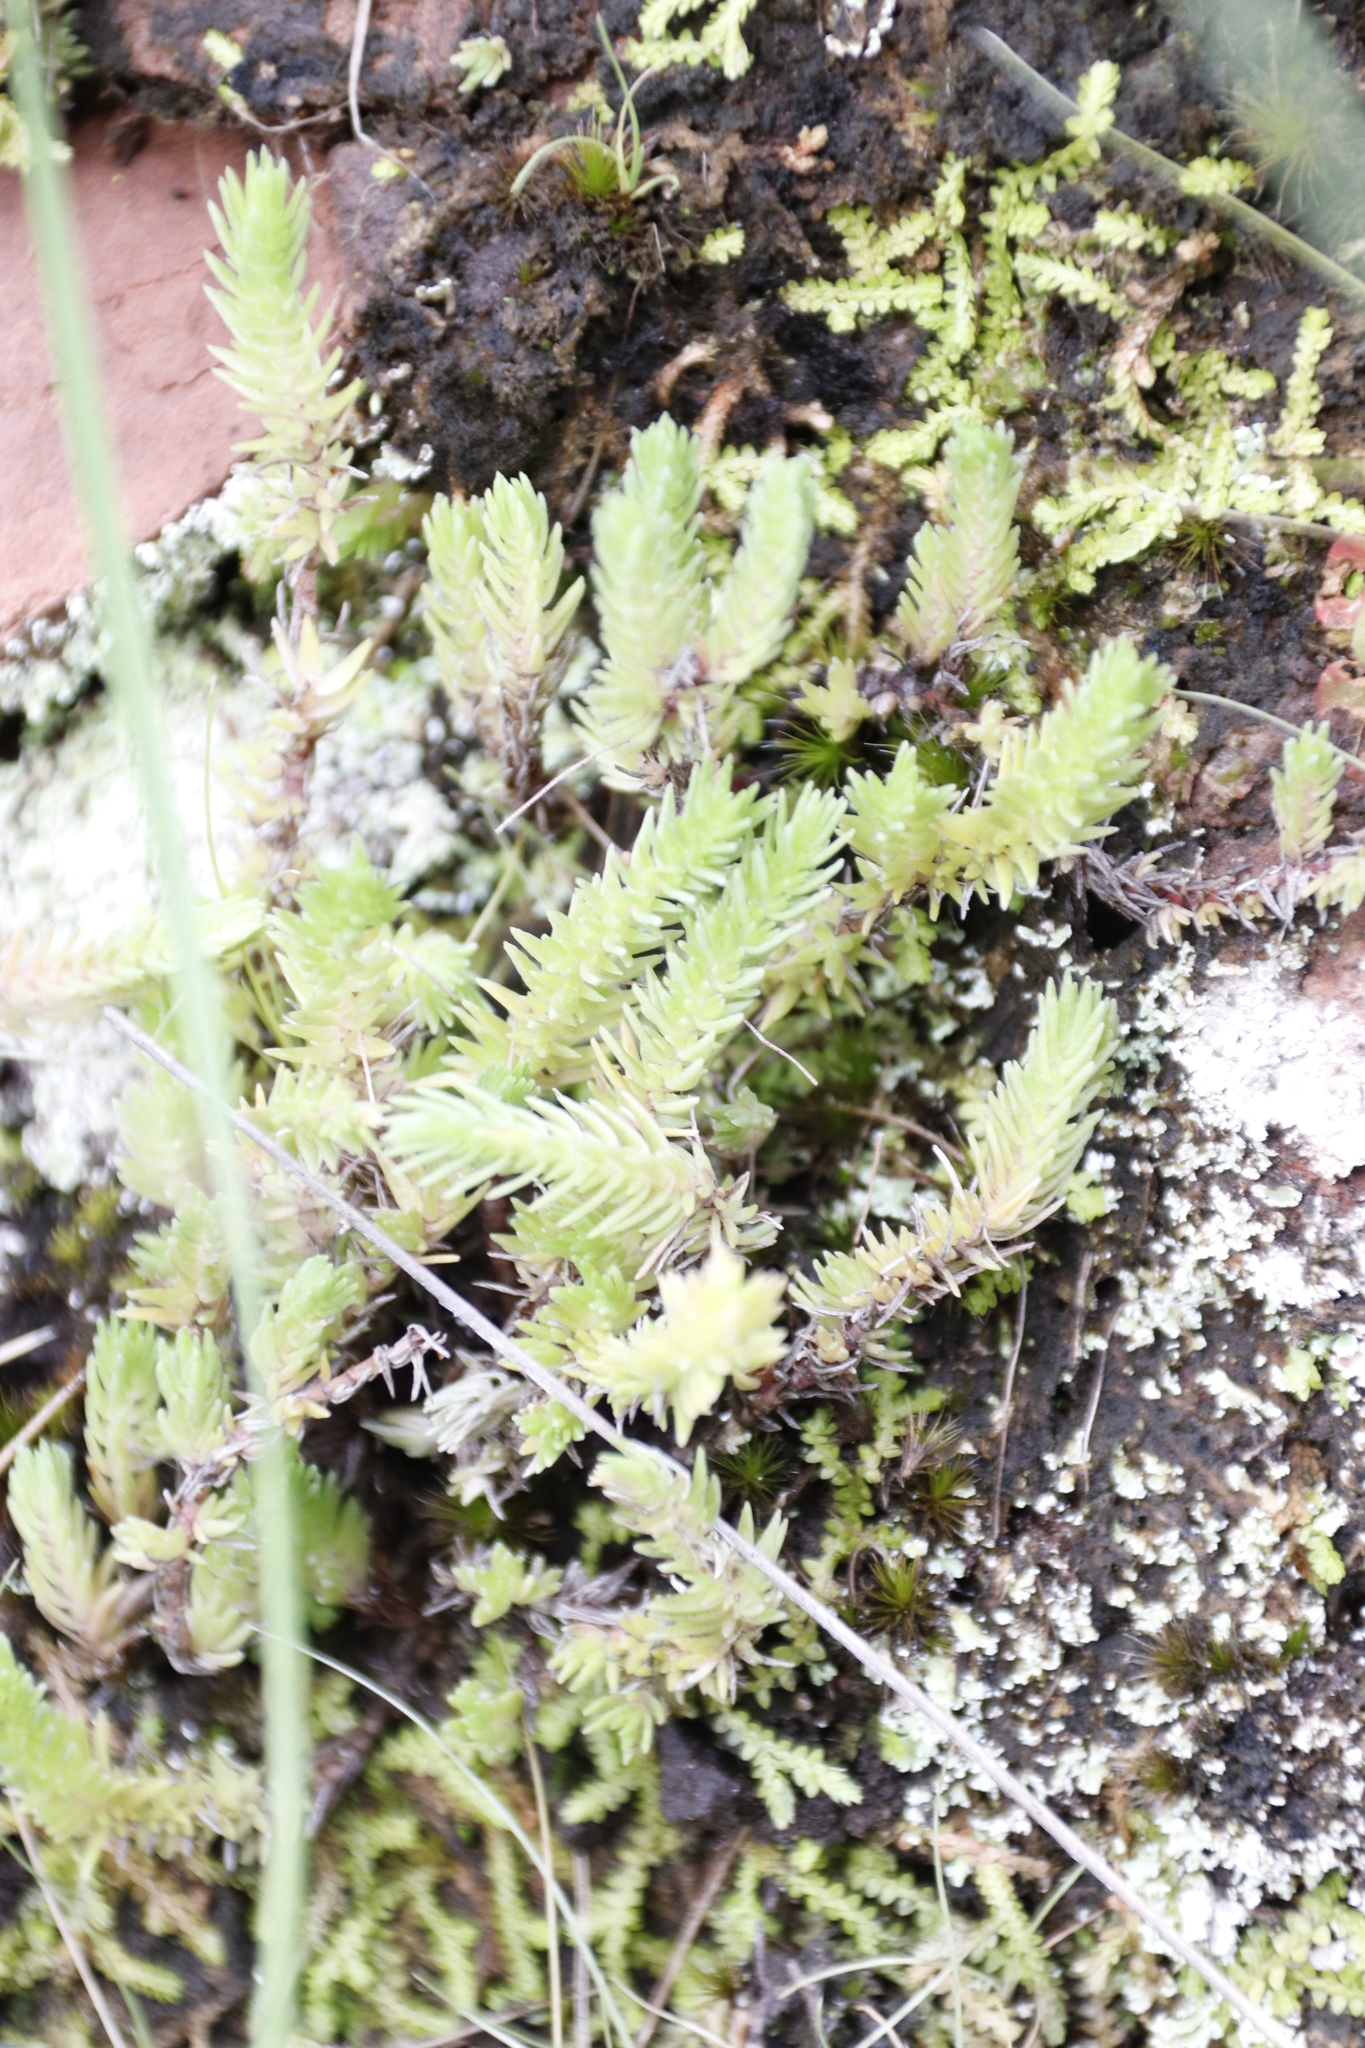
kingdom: Plantae
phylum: Tracheophyta
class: Magnoliopsida
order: Saxifragales
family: Crassulaceae
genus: Crassula
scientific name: Crassula lanceolata
